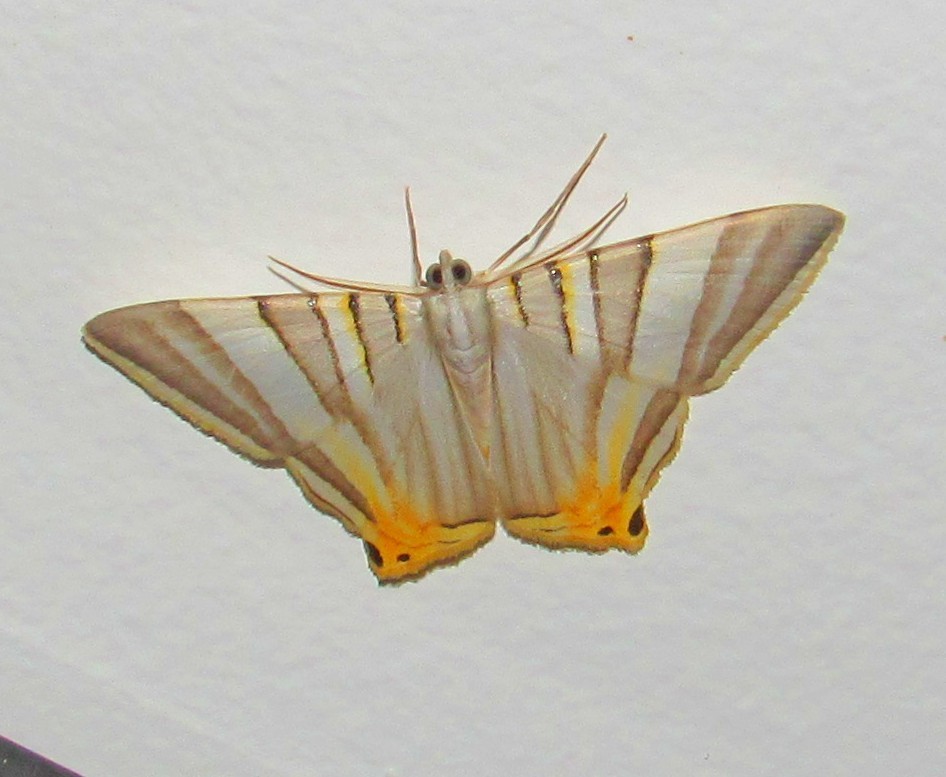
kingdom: Animalia
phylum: Arthropoda
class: Insecta
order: Lepidoptera
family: Geometridae
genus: Phrygionis
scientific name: Phrygionis platinata
